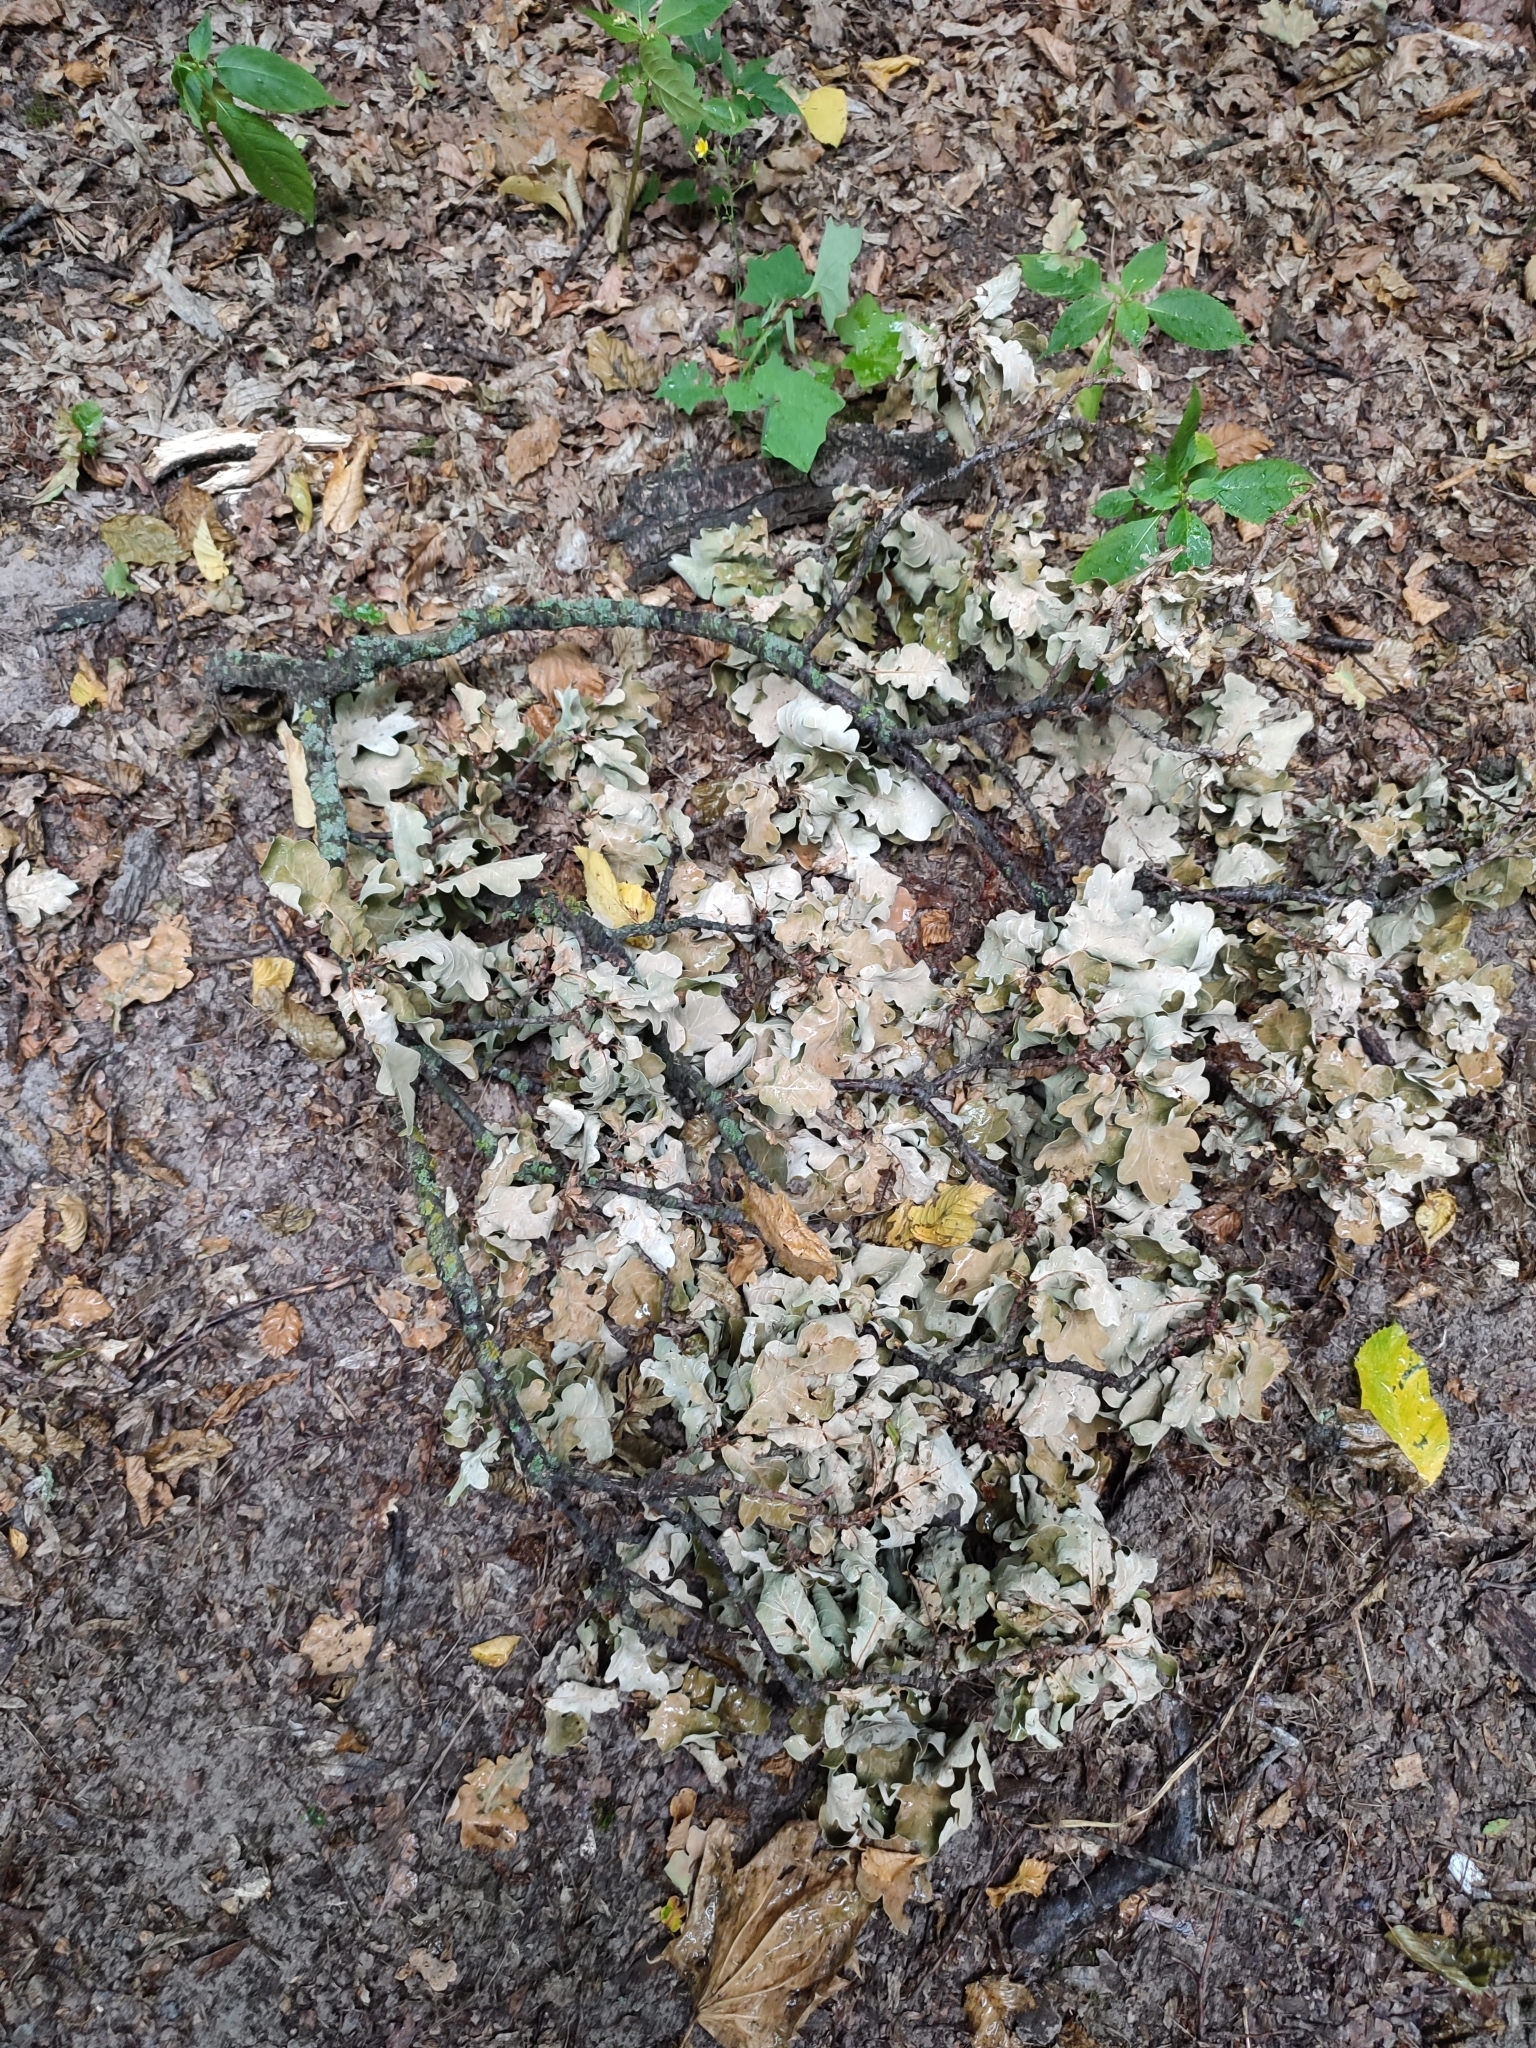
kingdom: Plantae
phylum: Tracheophyta
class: Magnoliopsida
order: Fagales
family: Fagaceae
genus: Quercus
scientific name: Quercus robur
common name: Pedunculate oak
